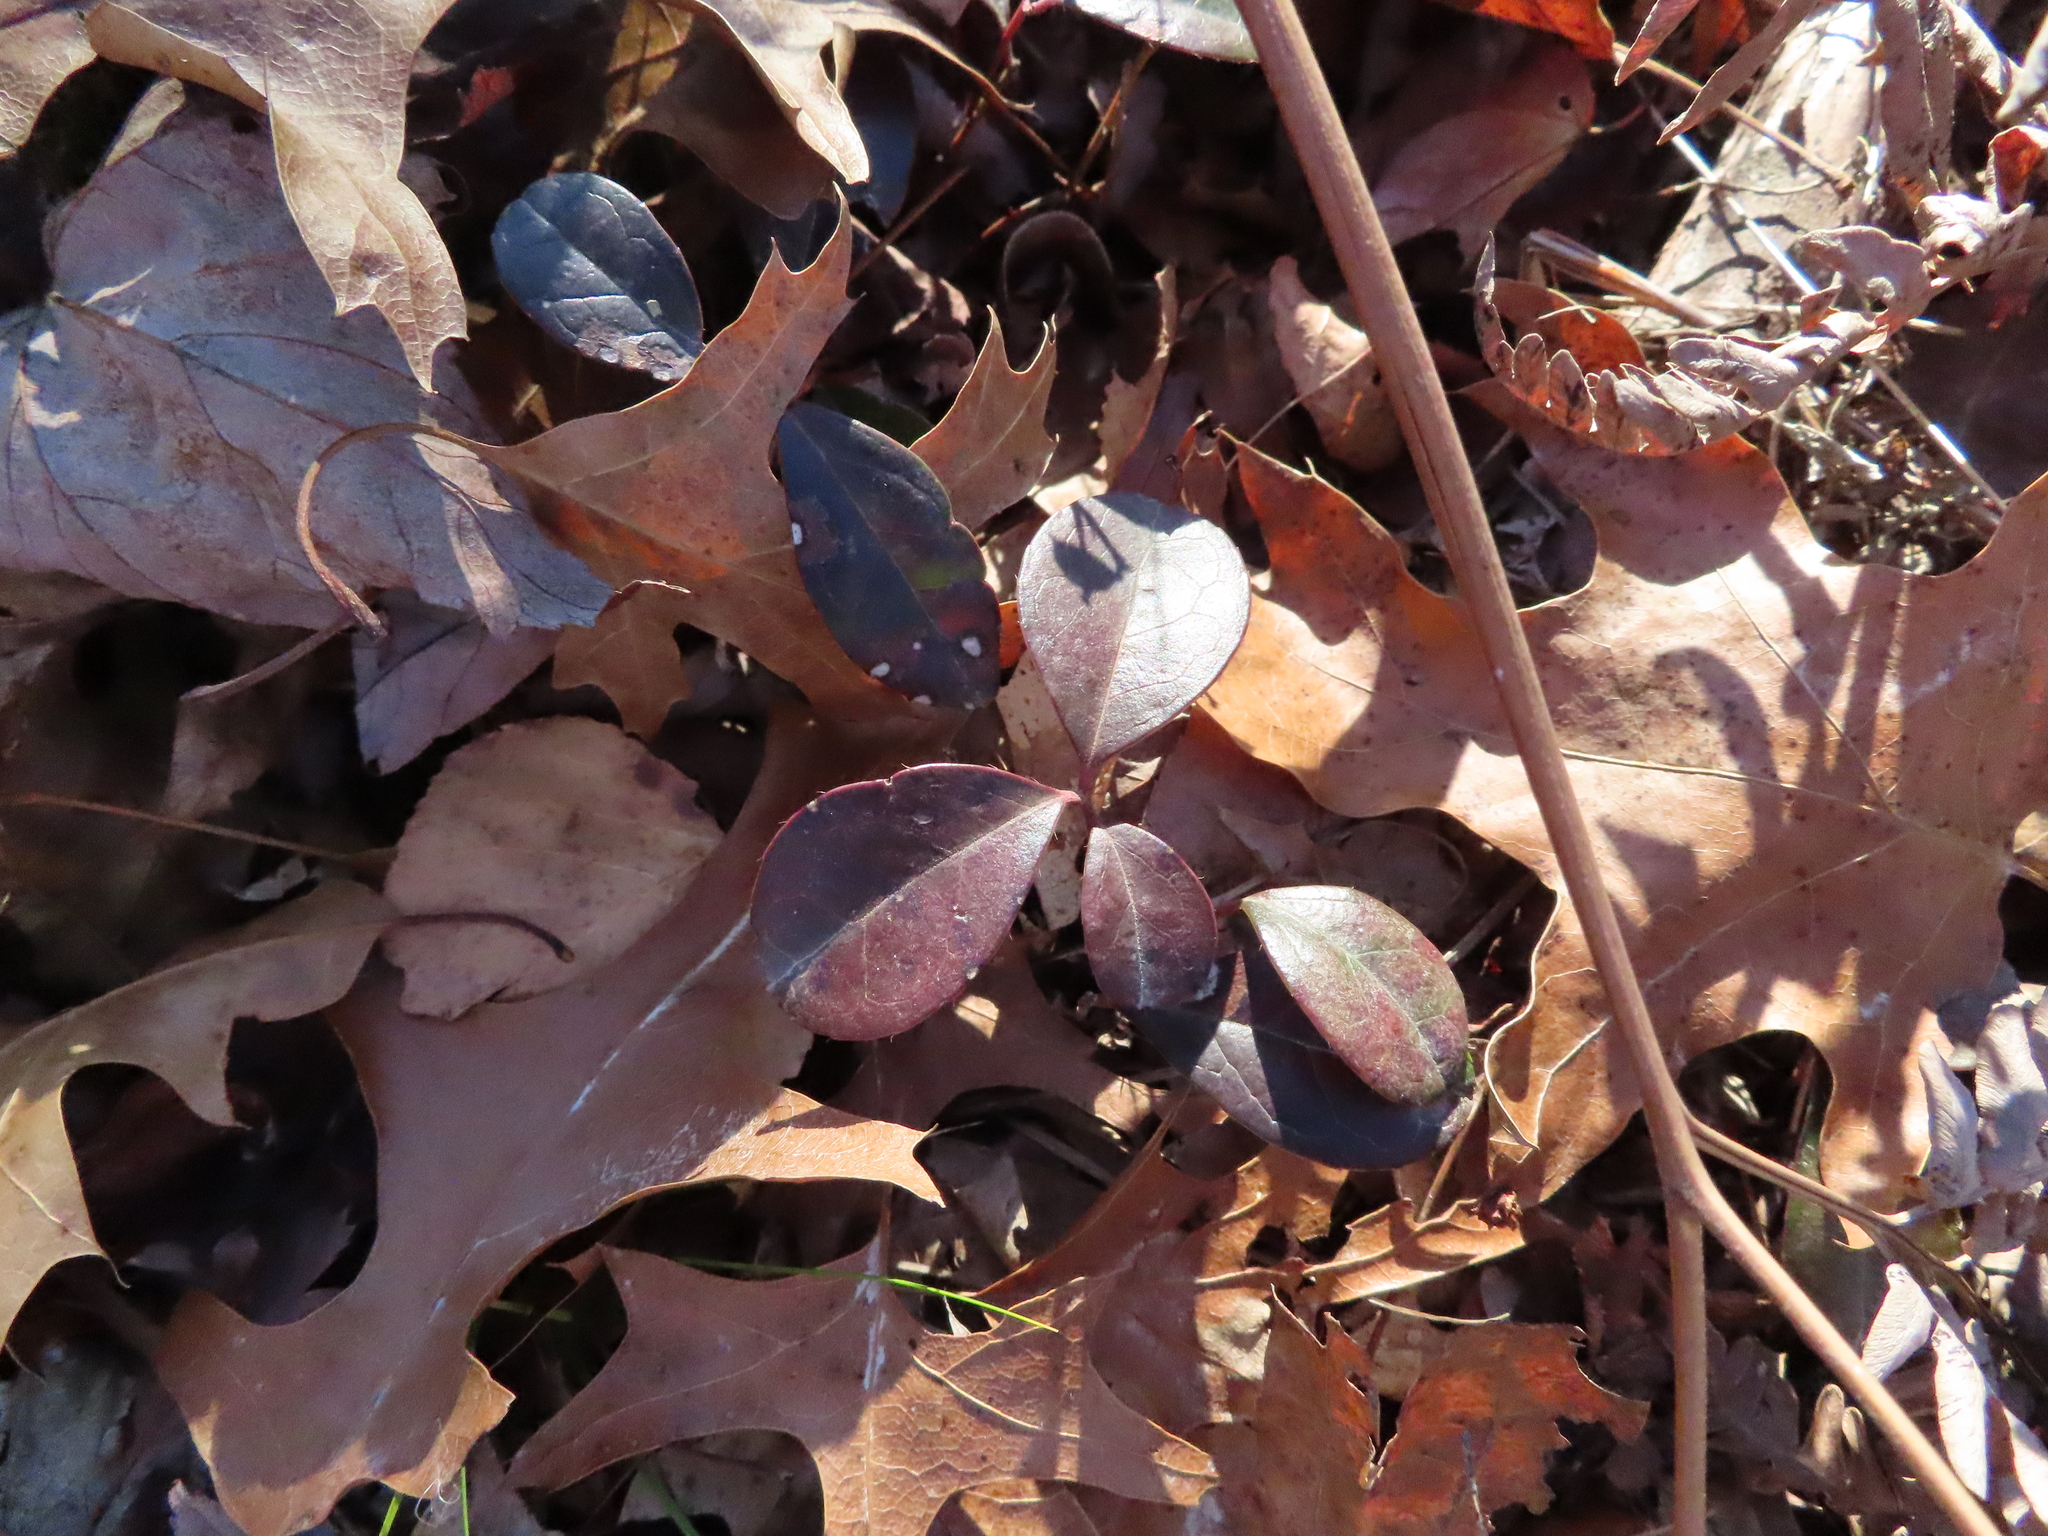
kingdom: Plantae
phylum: Tracheophyta
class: Magnoliopsida
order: Ericales
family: Ericaceae
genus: Gaultheria
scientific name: Gaultheria procumbens
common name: Checkerberry
